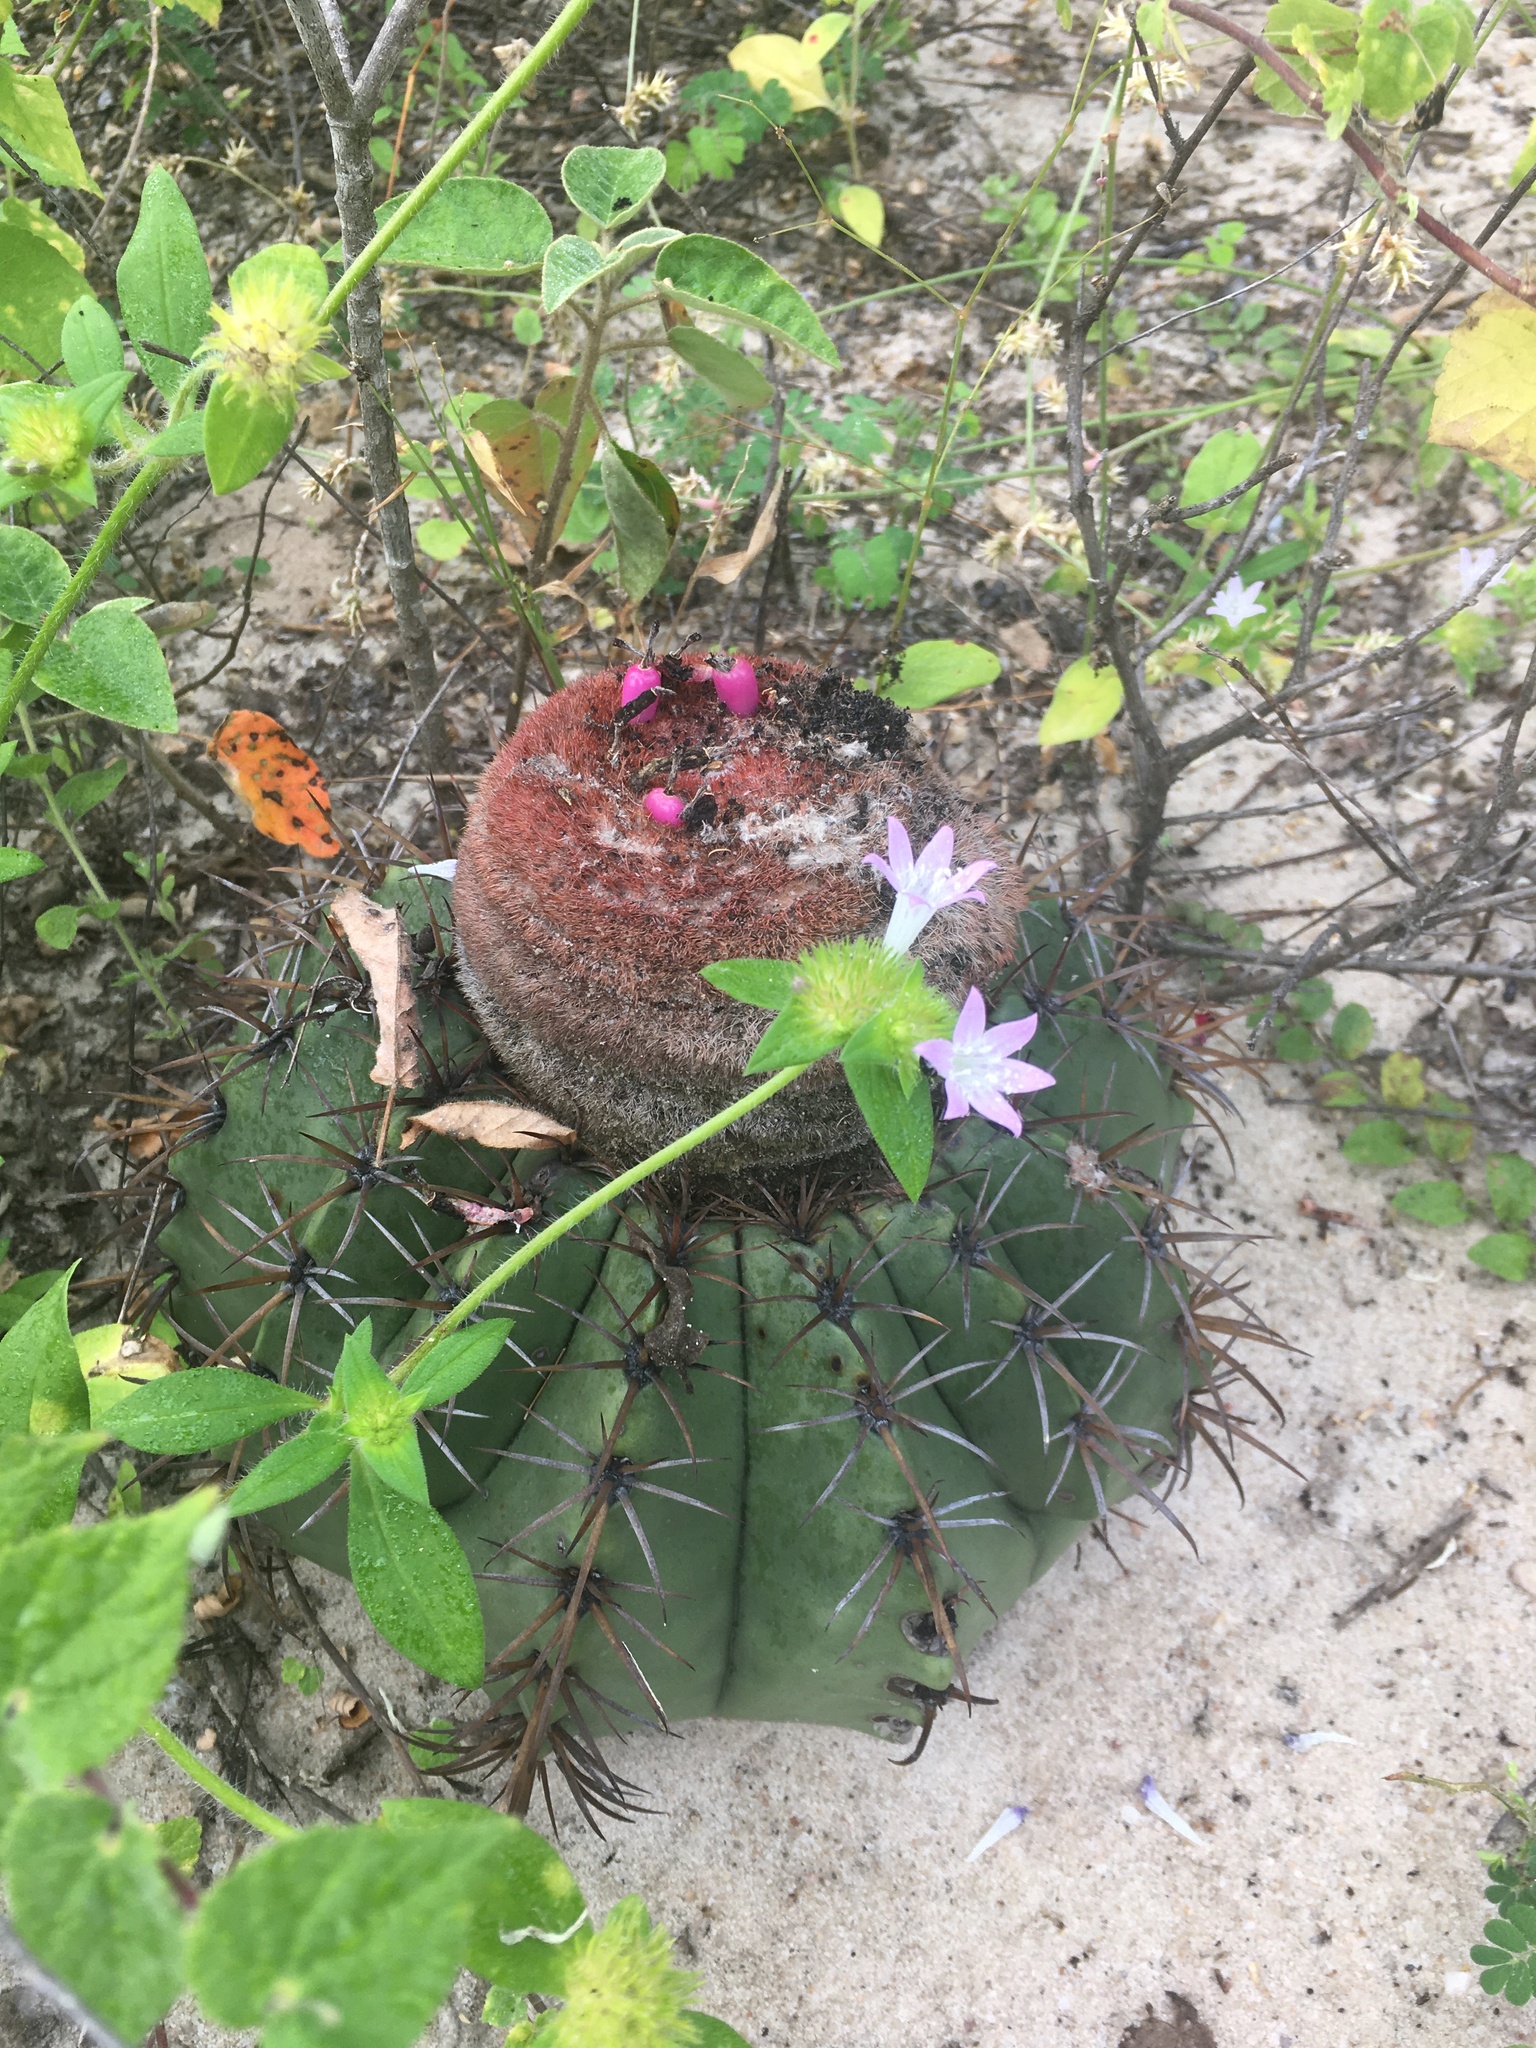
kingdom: Plantae
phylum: Tracheophyta
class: Magnoliopsida
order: Caryophyllales
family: Cactaceae
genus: Melocactus
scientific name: Melocactus pruinosus
